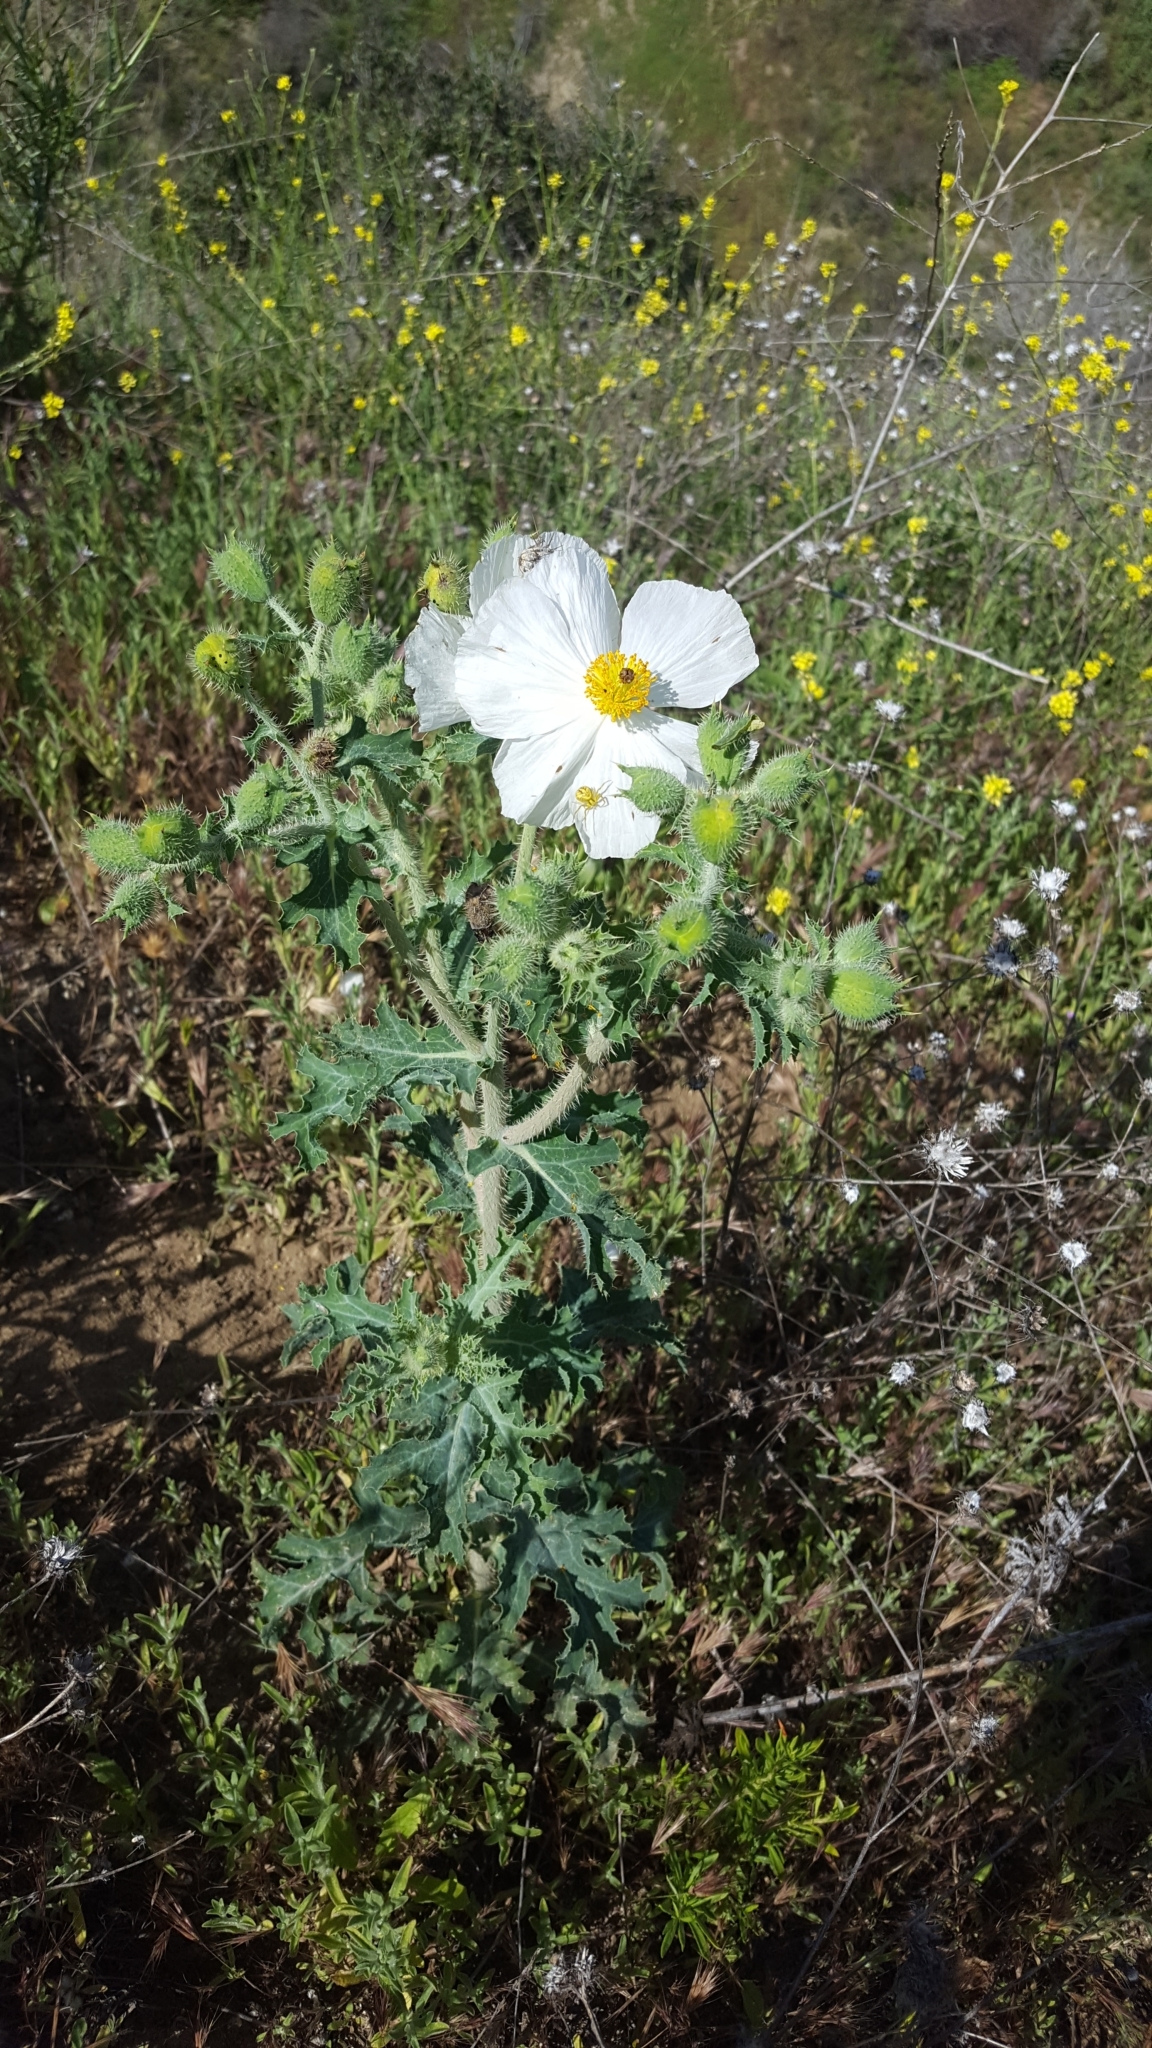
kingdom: Plantae
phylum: Tracheophyta
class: Magnoliopsida
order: Ranunculales
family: Papaveraceae
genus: Argemone
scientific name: Argemone munita
